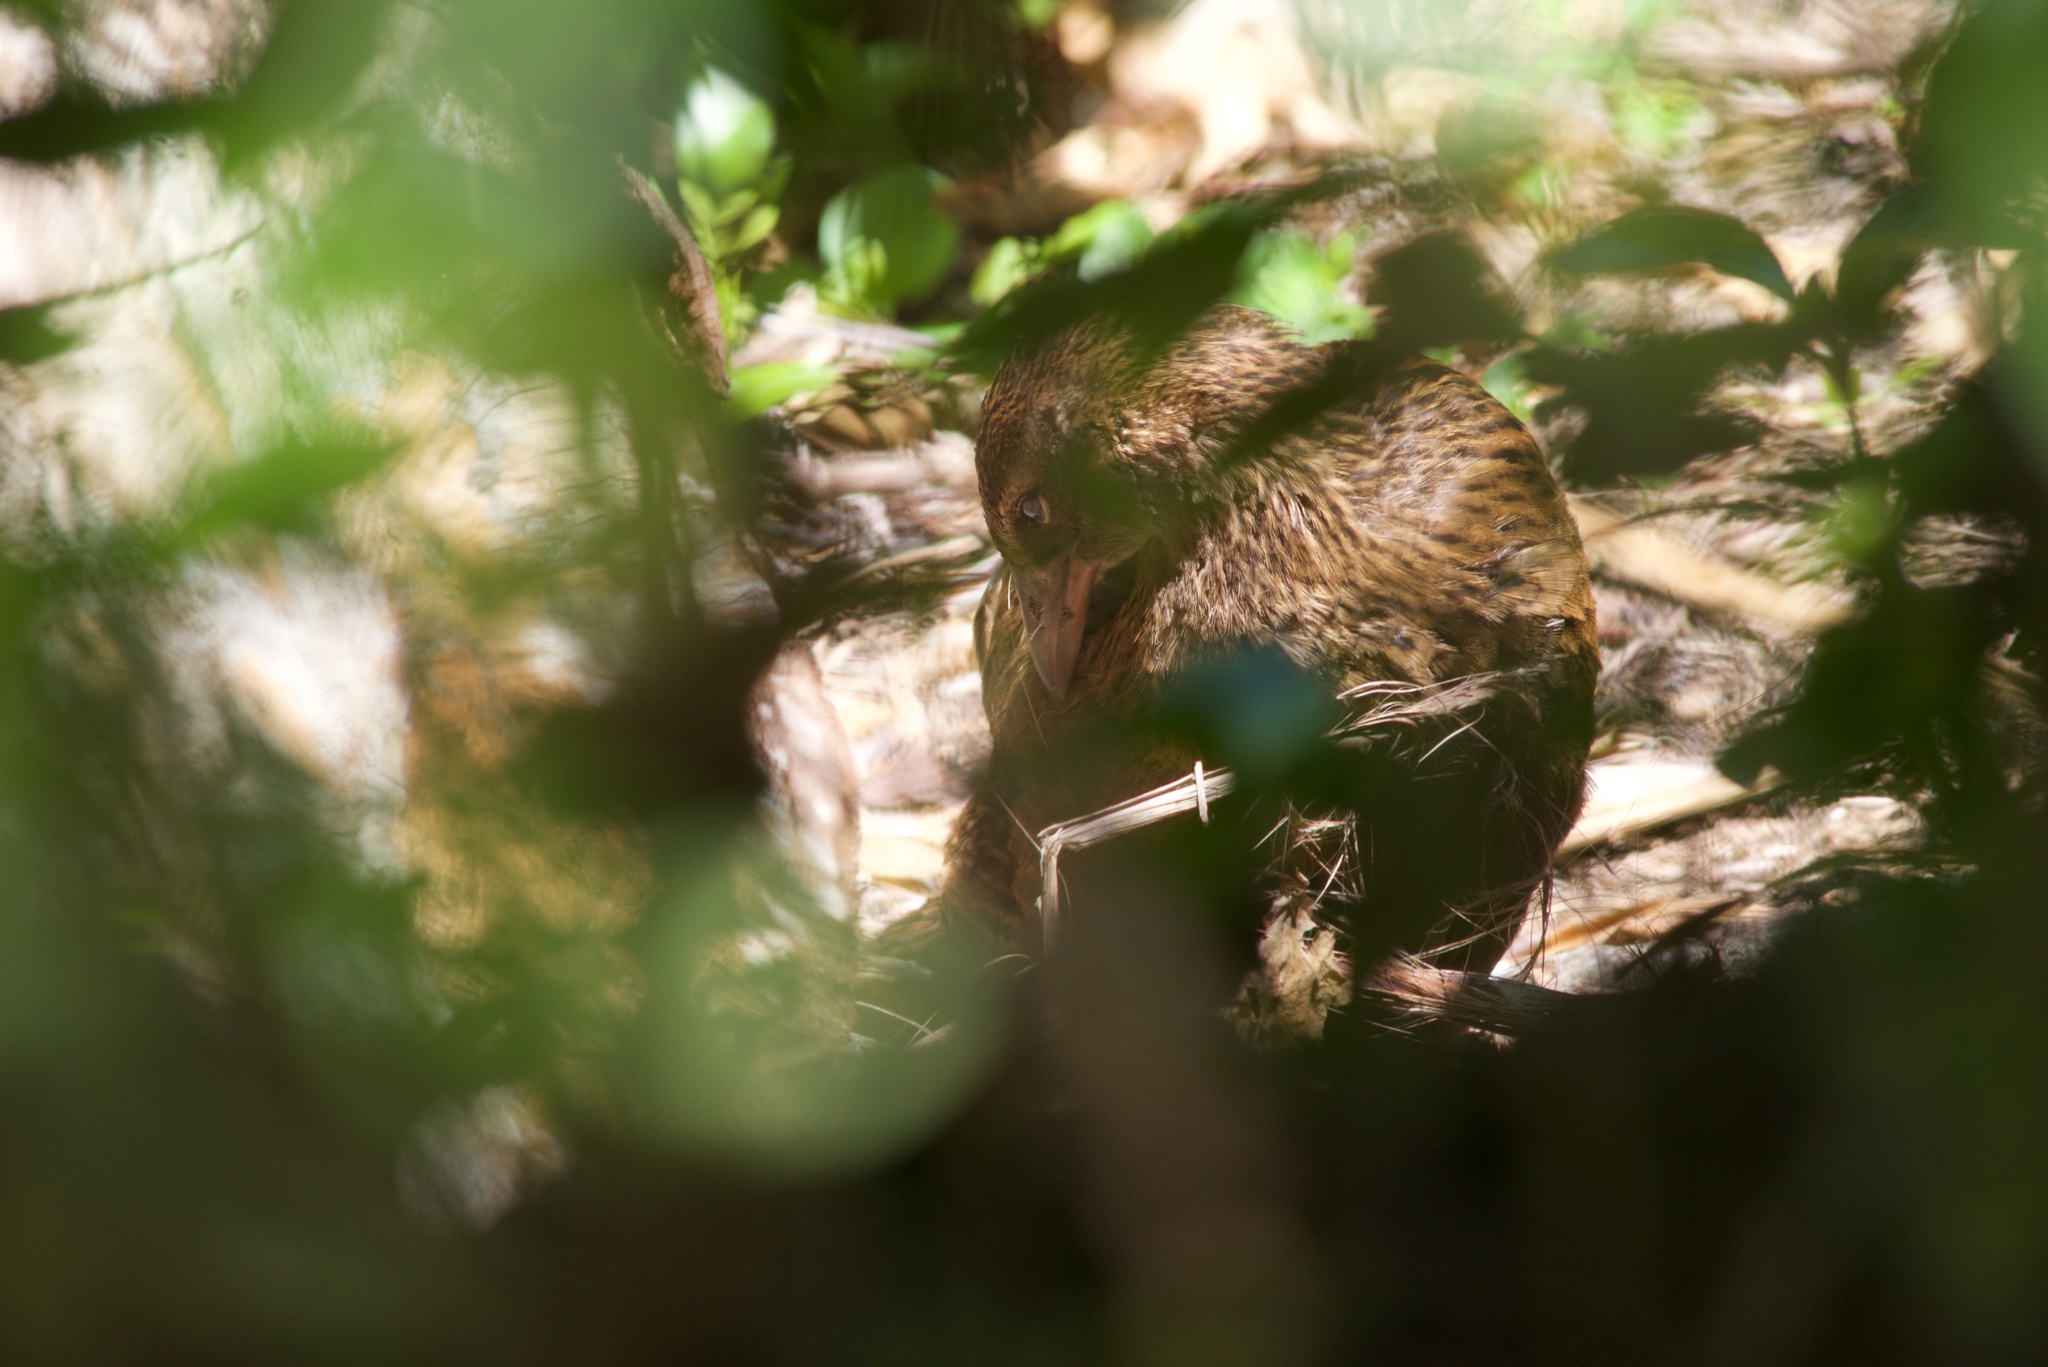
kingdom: Animalia
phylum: Chordata
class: Aves
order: Gruiformes
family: Rallidae
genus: Gallirallus
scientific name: Gallirallus australis
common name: Weka
